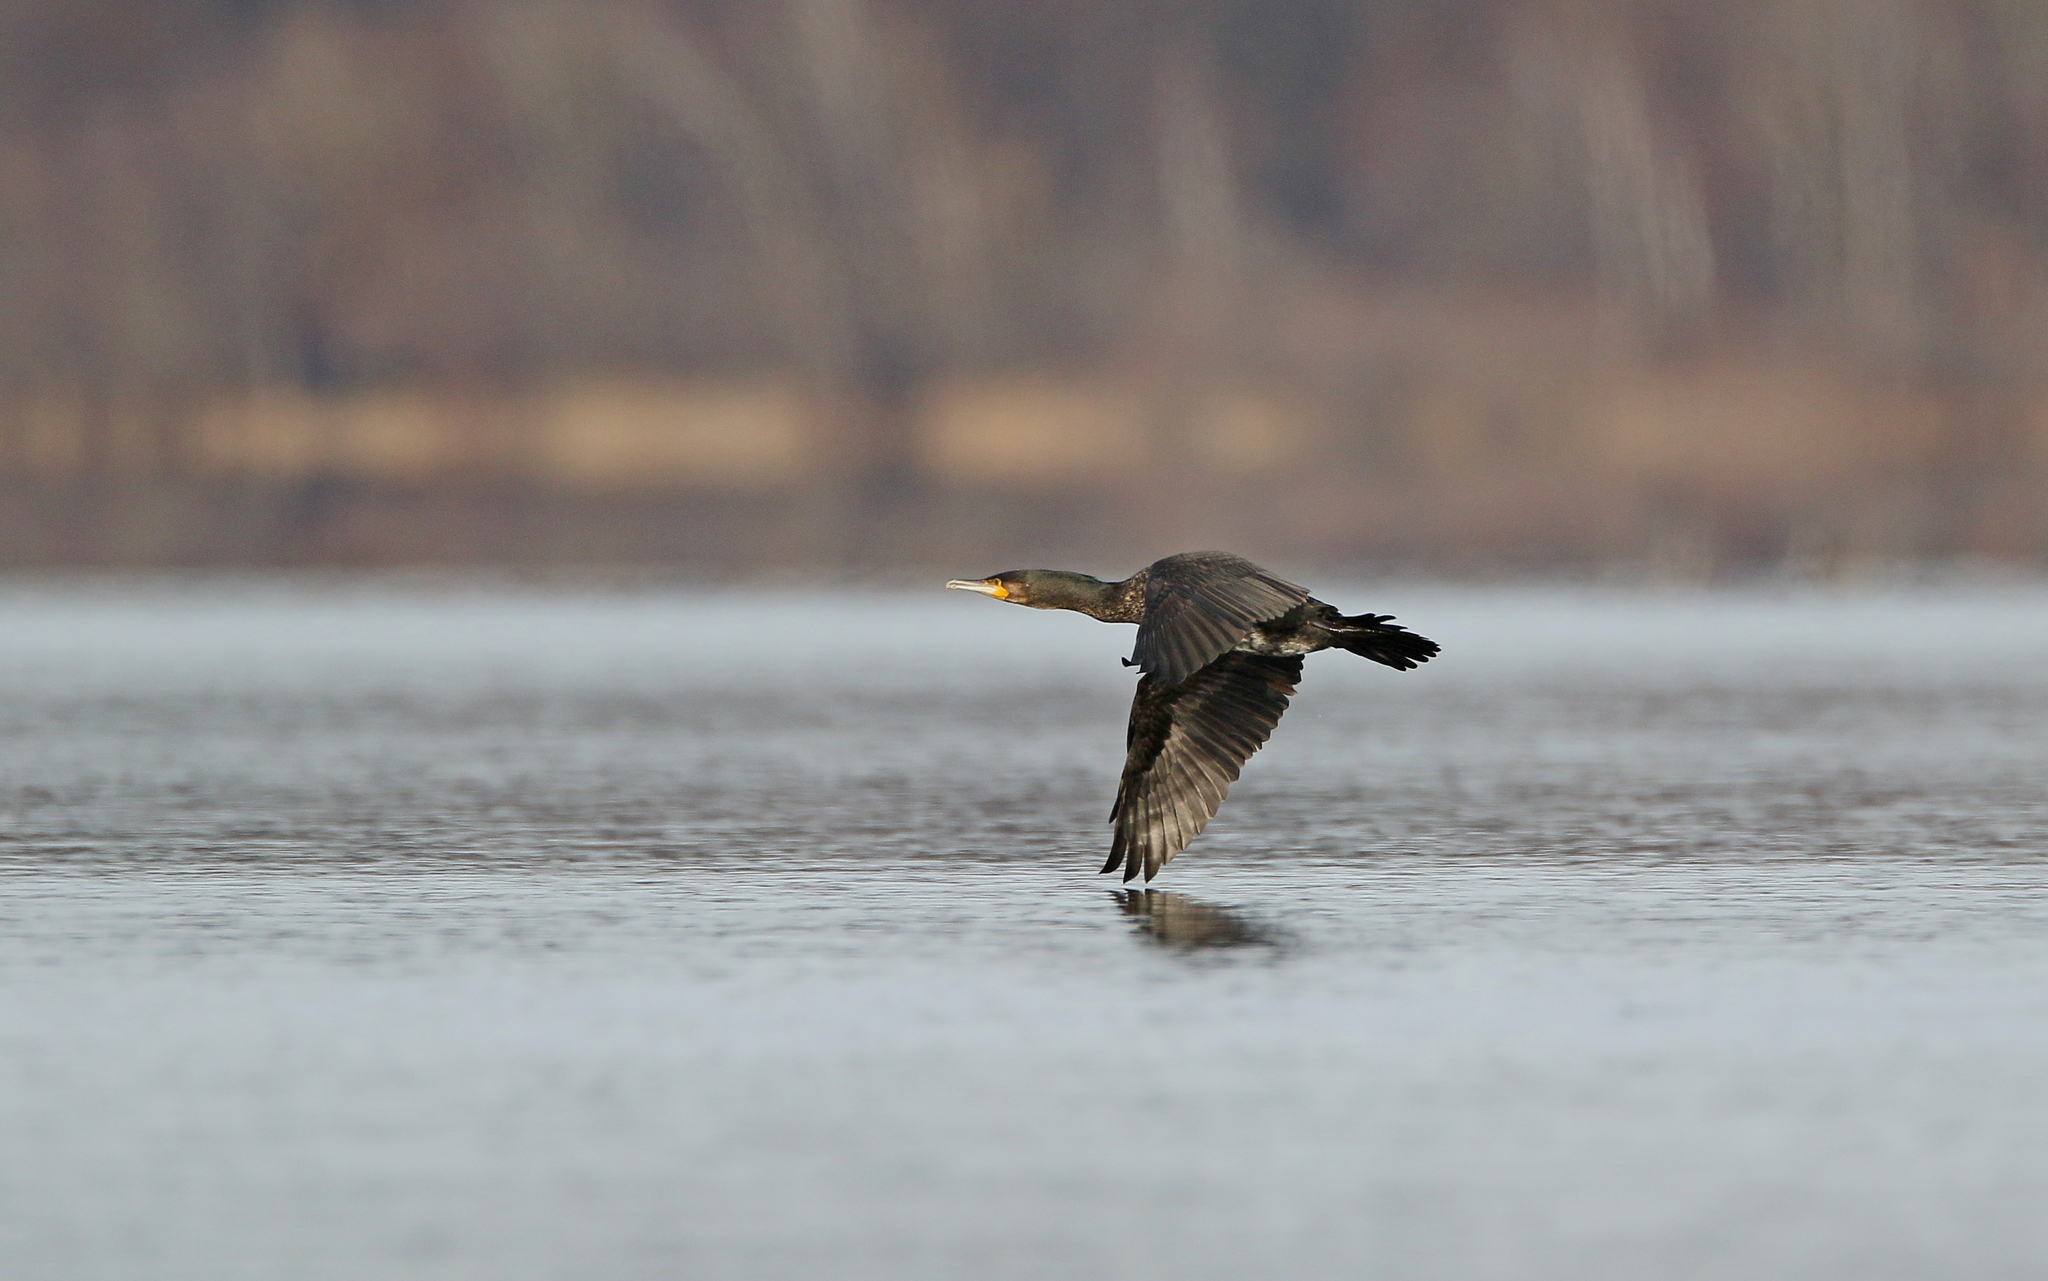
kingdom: Animalia
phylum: Chordata
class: Aves
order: Suliformes
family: Phalacrocoracidae
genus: Phalacrocorax
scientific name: Phalacrocorax carbo
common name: Great cormorant
